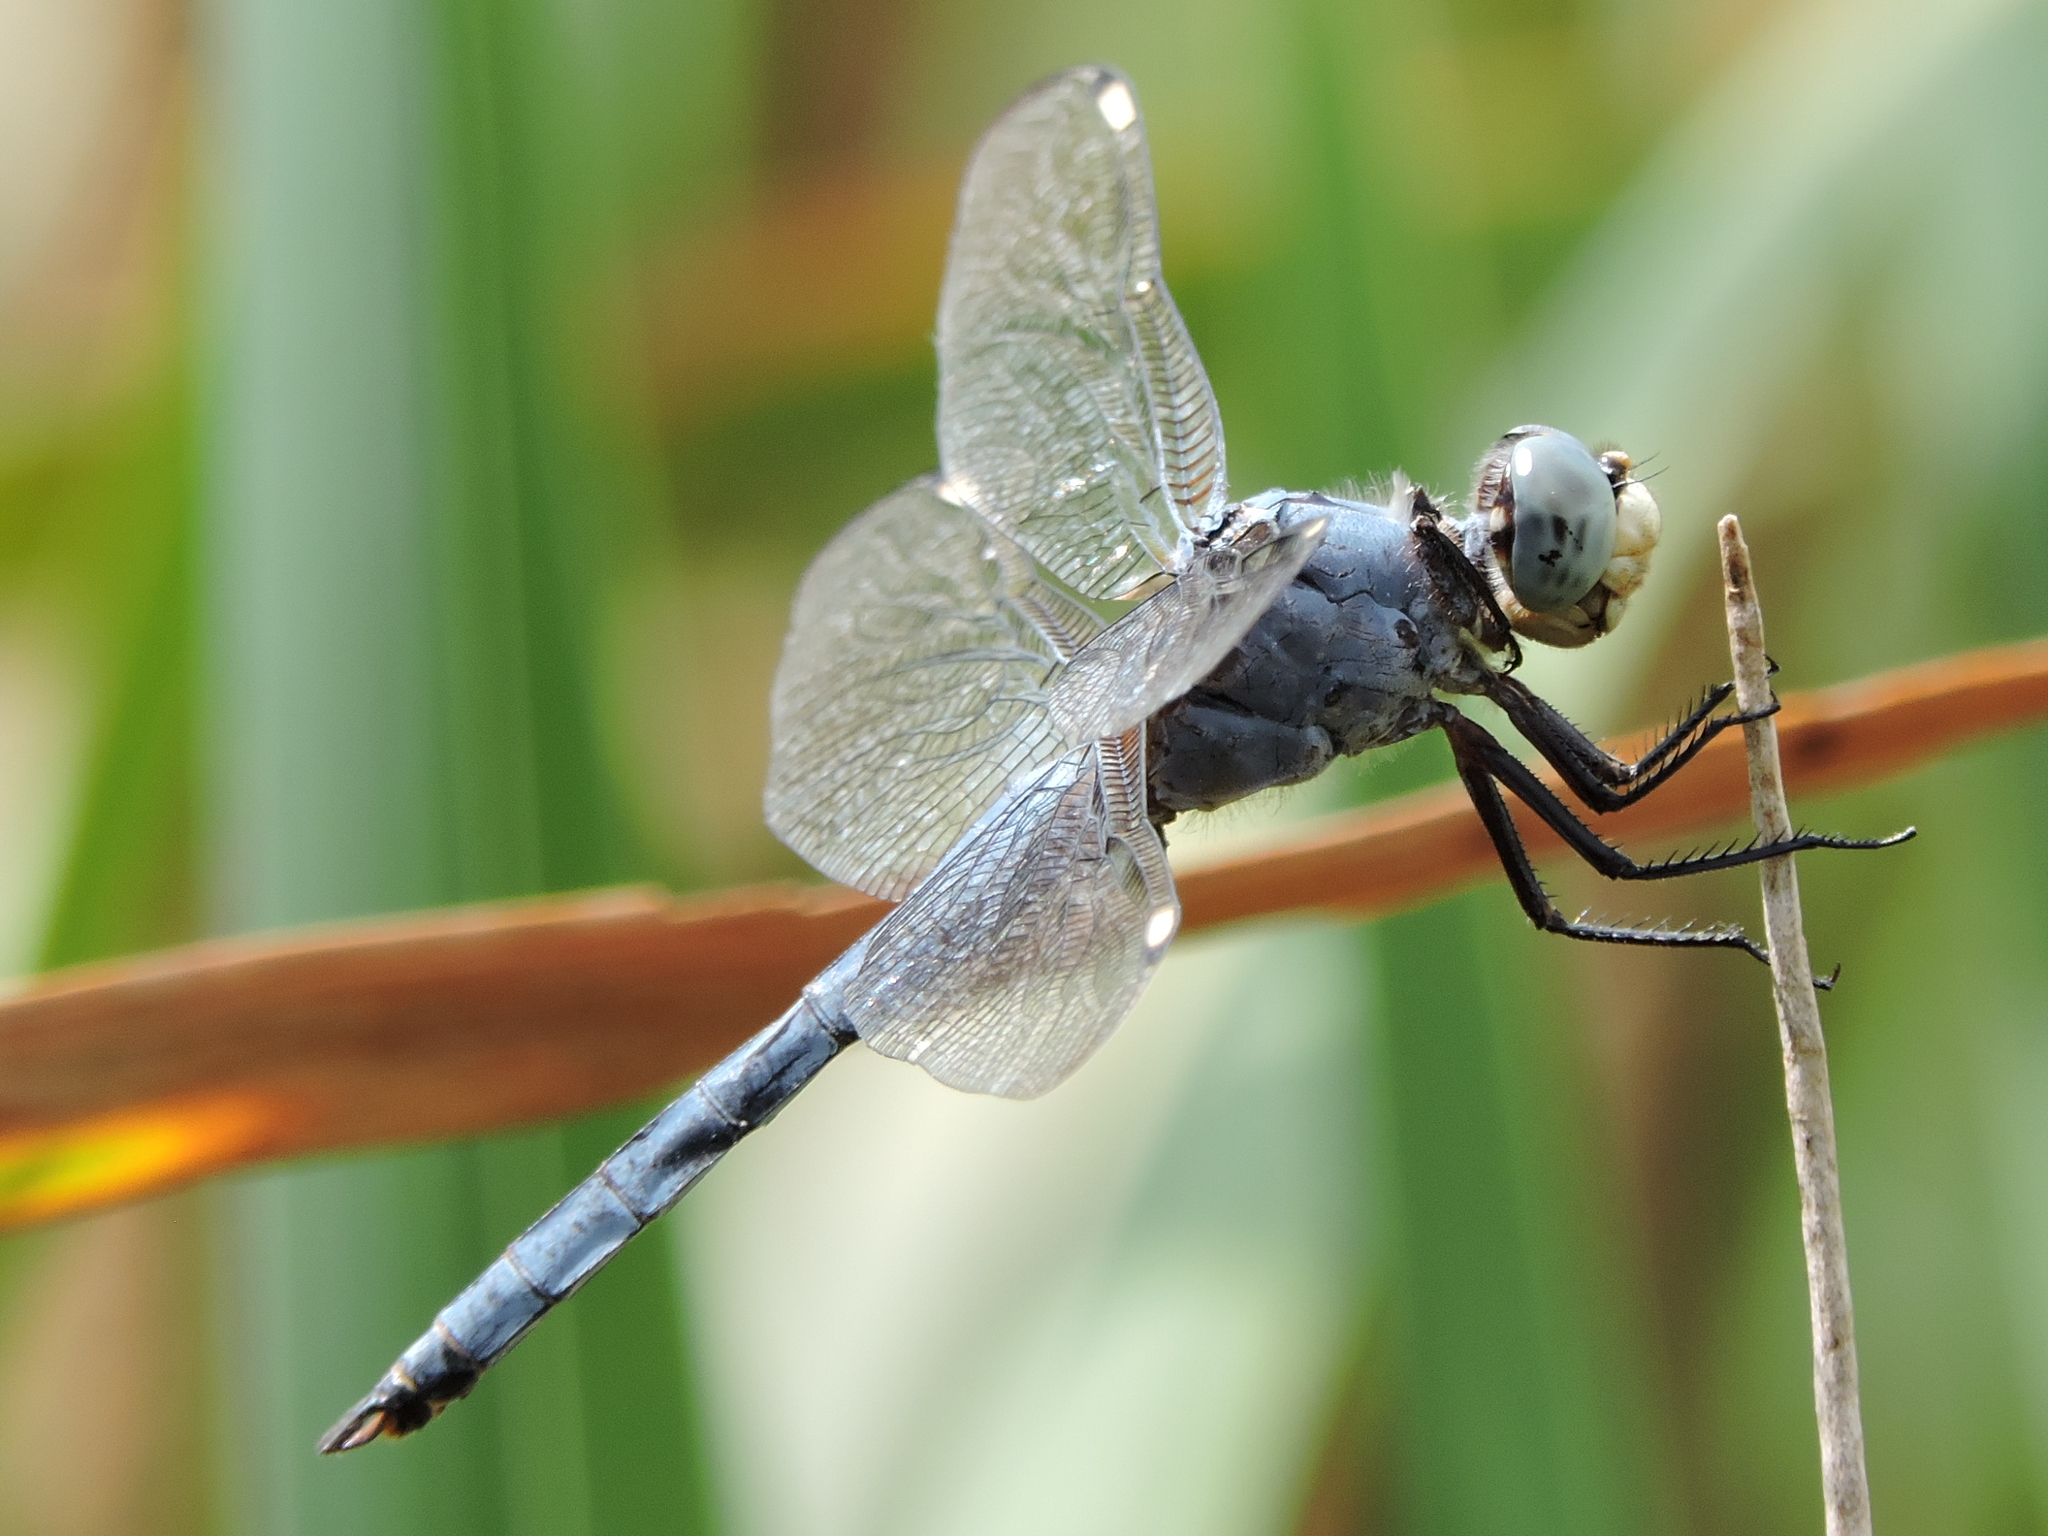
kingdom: Animalia
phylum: Arthropoda
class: Insecta
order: Odonata
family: Libellulidae
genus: Libellula
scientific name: Libellula comanche
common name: Comanche skimmer
